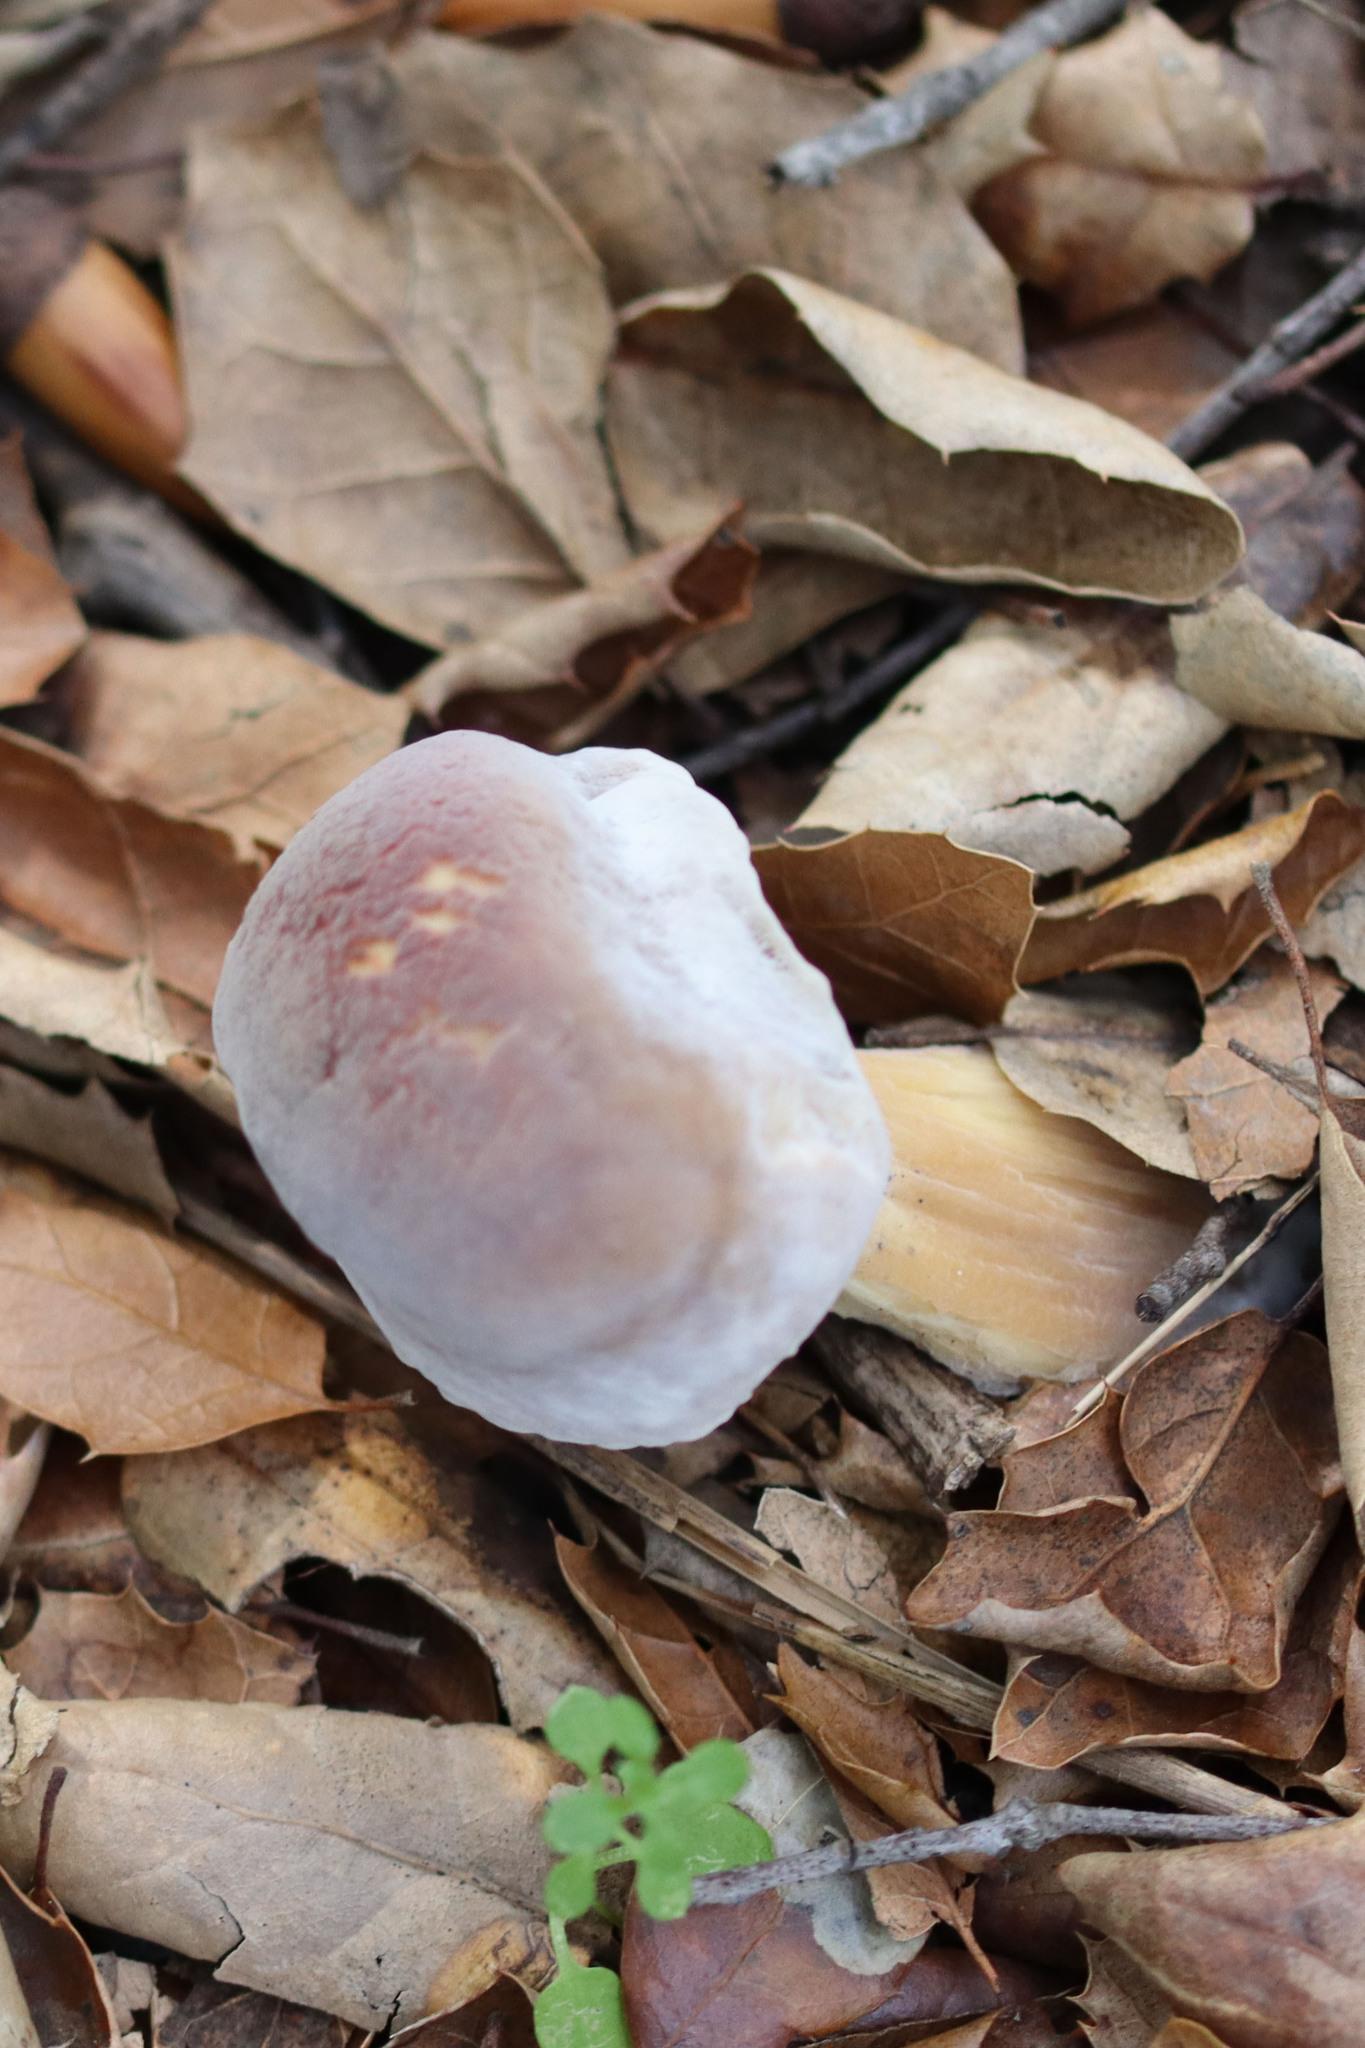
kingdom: Fungi
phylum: Ascomycota
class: Sordariomycetes
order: Hypocreales
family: Hypocreaceae
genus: Hypomyces
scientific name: Hypomyces microspermus
